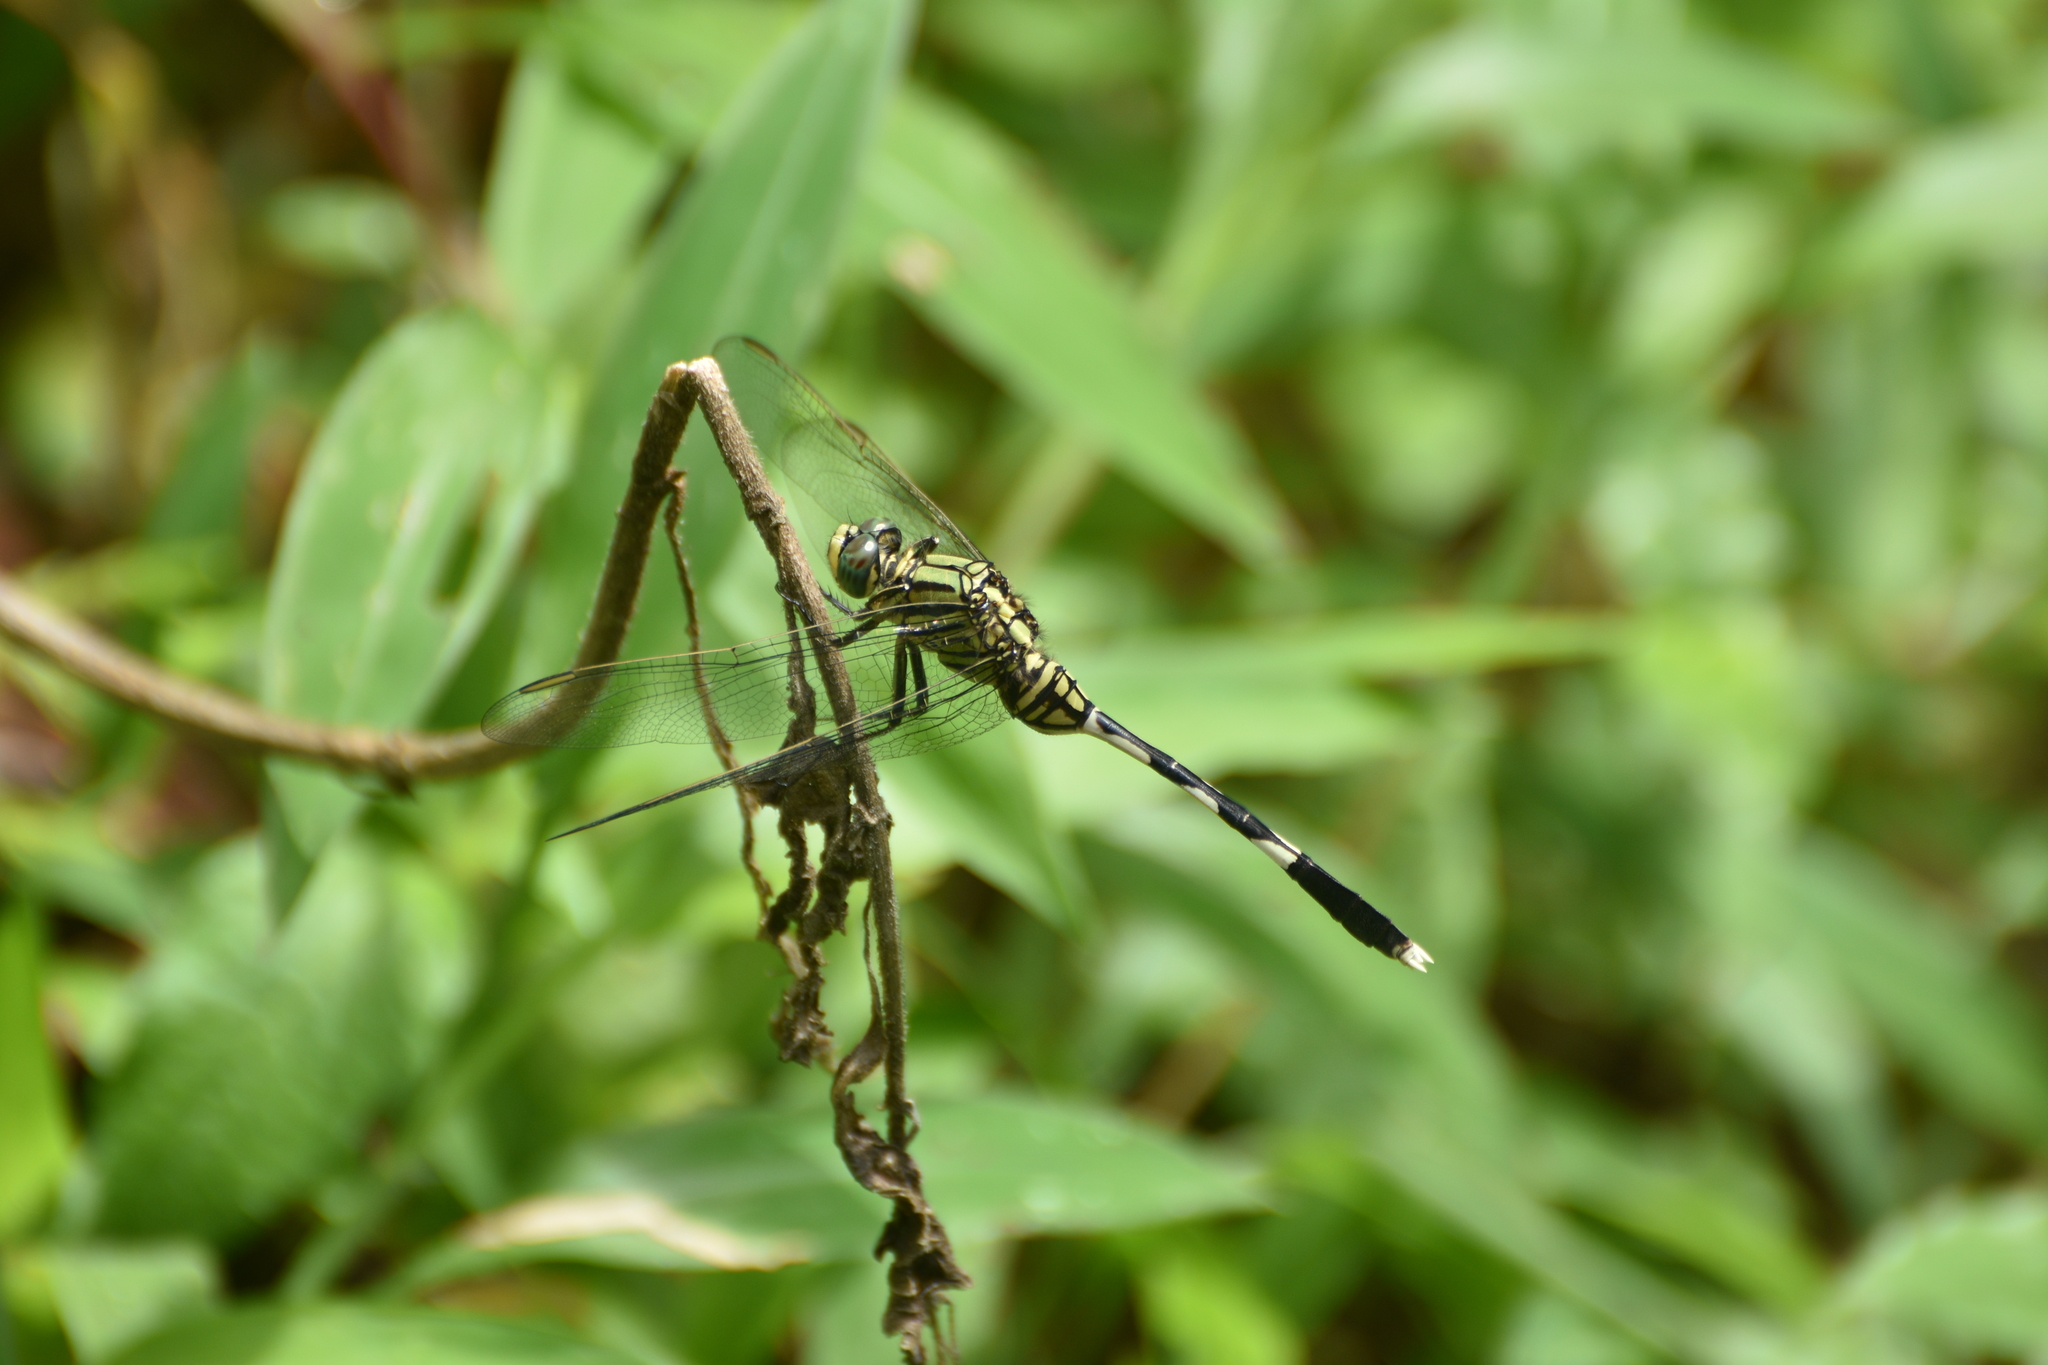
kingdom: Animalia
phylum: Arthropoda
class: Insecta
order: Odonata
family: Libellulidae
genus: Orthetrum
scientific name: Orthetrum sabina
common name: Slender skimmer
